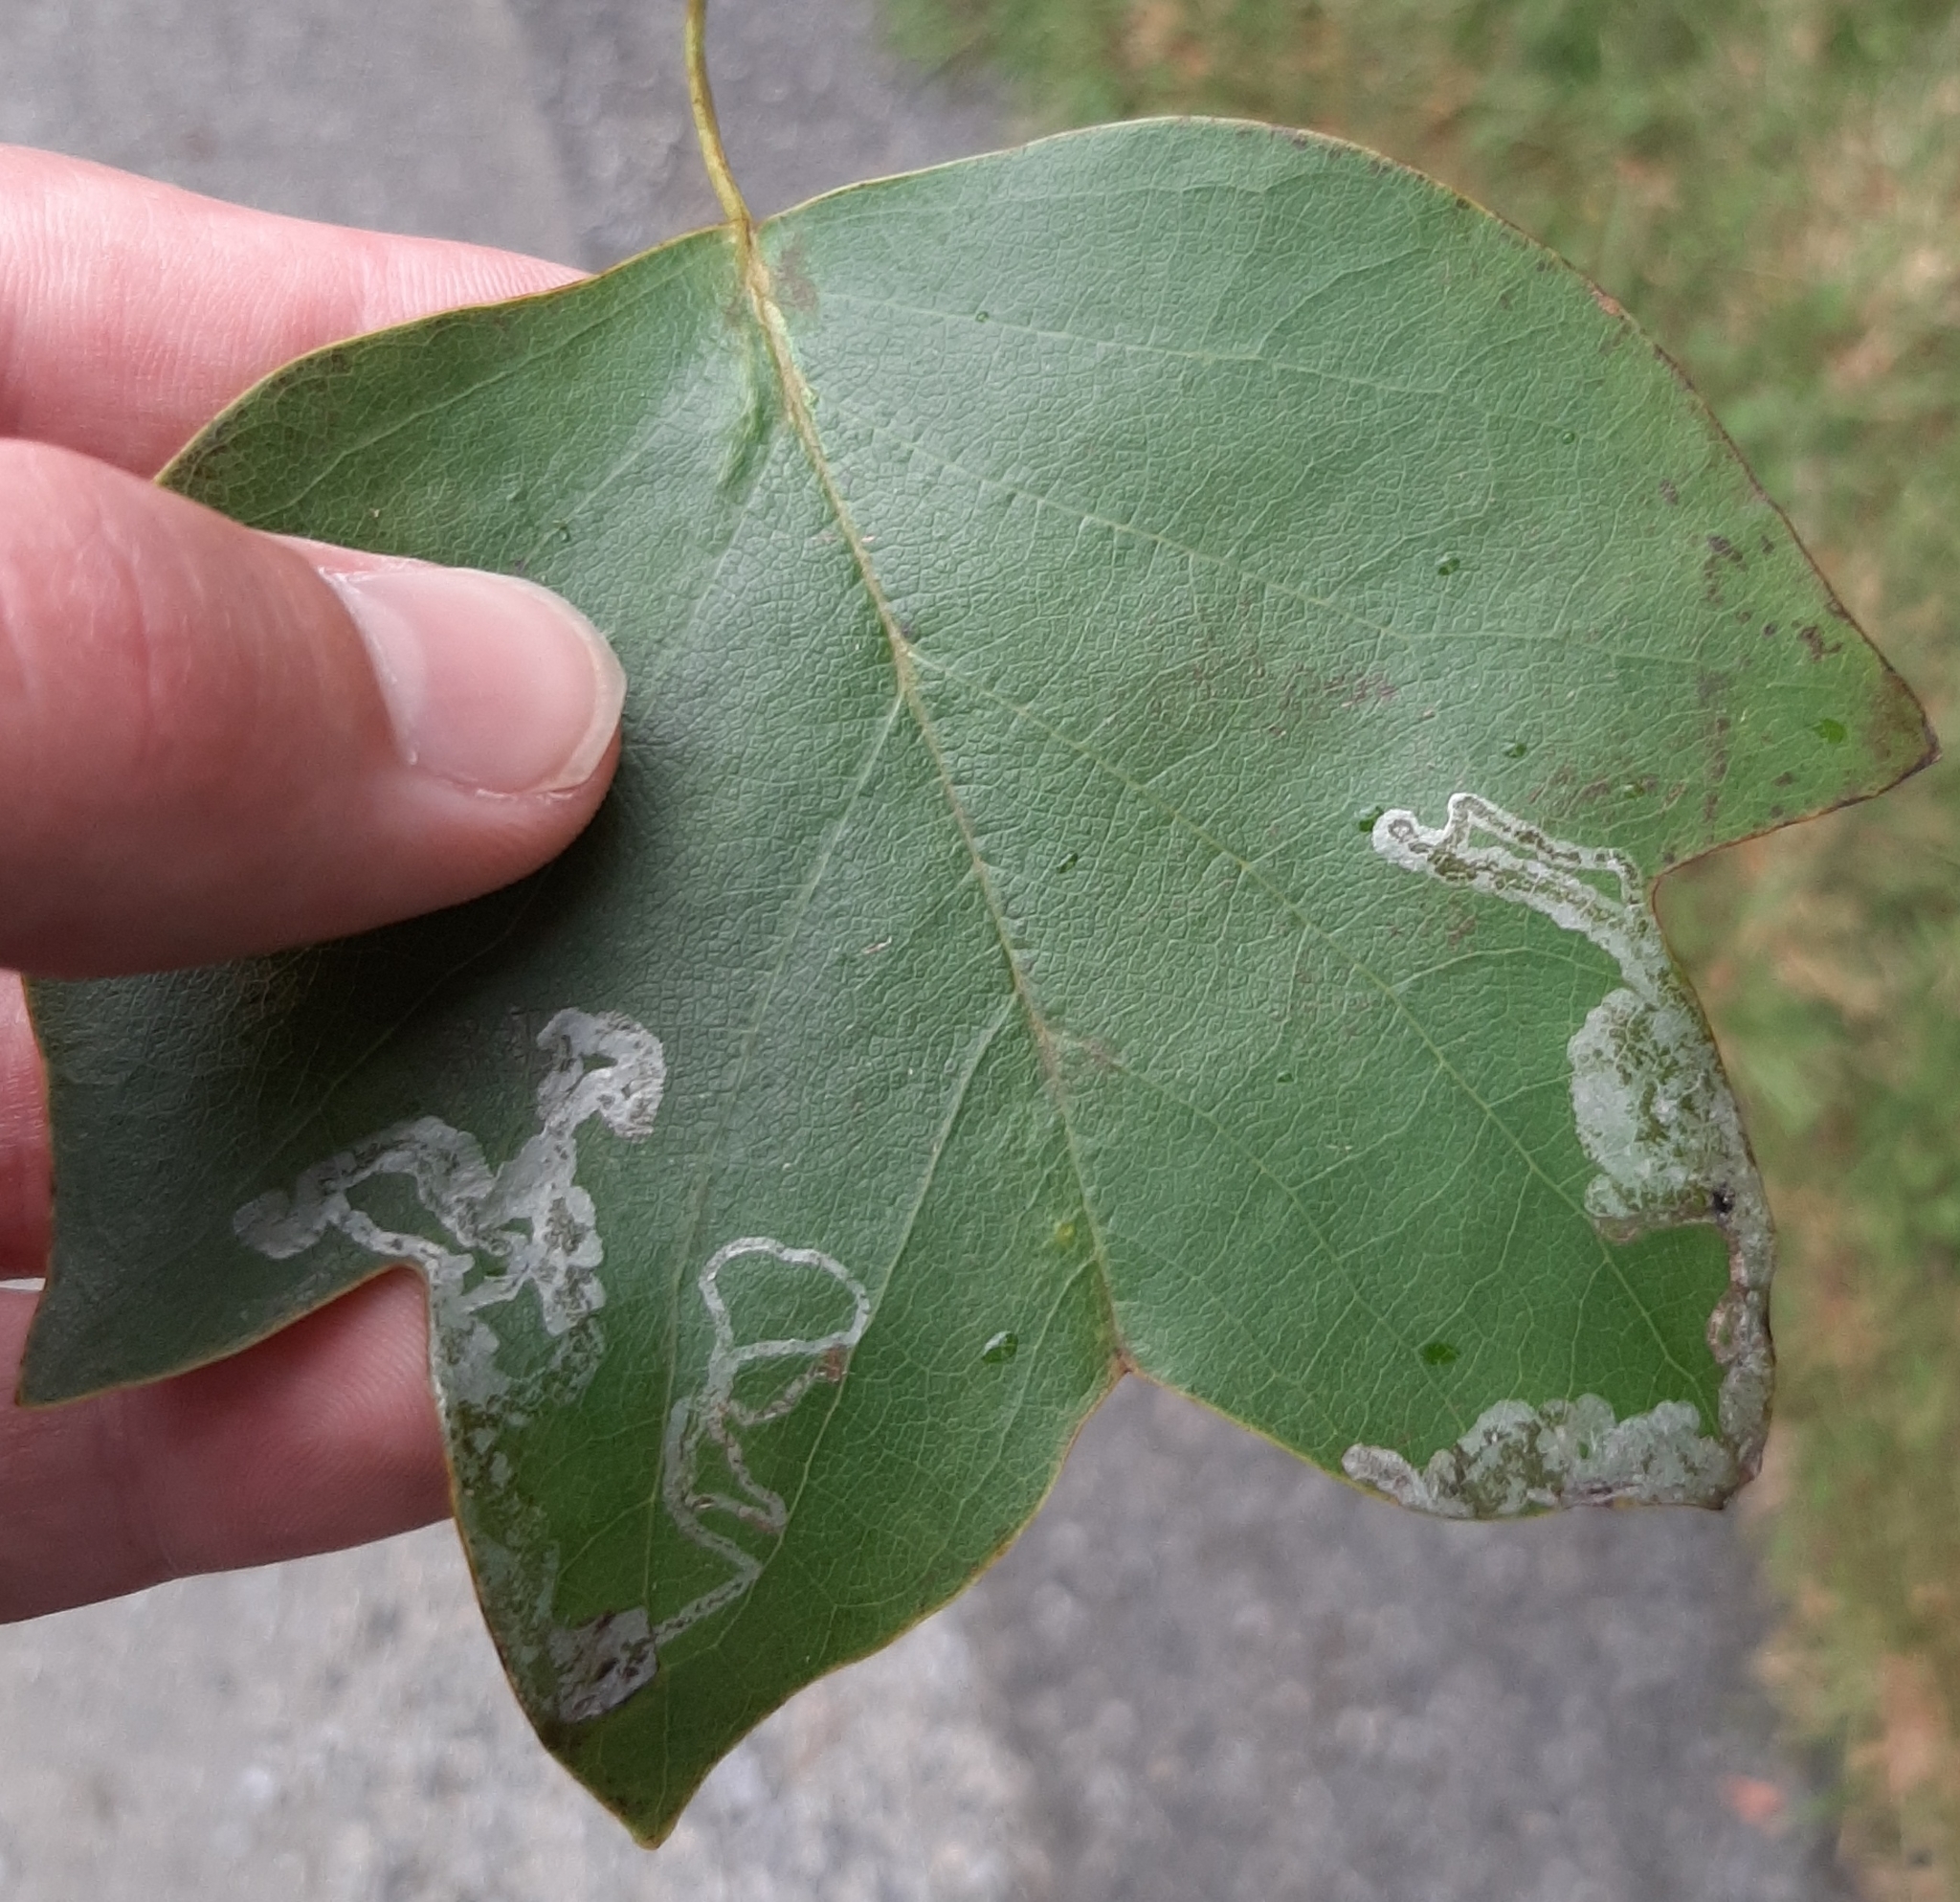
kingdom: Animalia
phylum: Arthropoda
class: Insecta
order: Lepidoptera
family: Gracillariidae
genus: Phyllocnistis
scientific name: Phyllocnistis liriodendronella
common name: Tulip tree leaf miner
